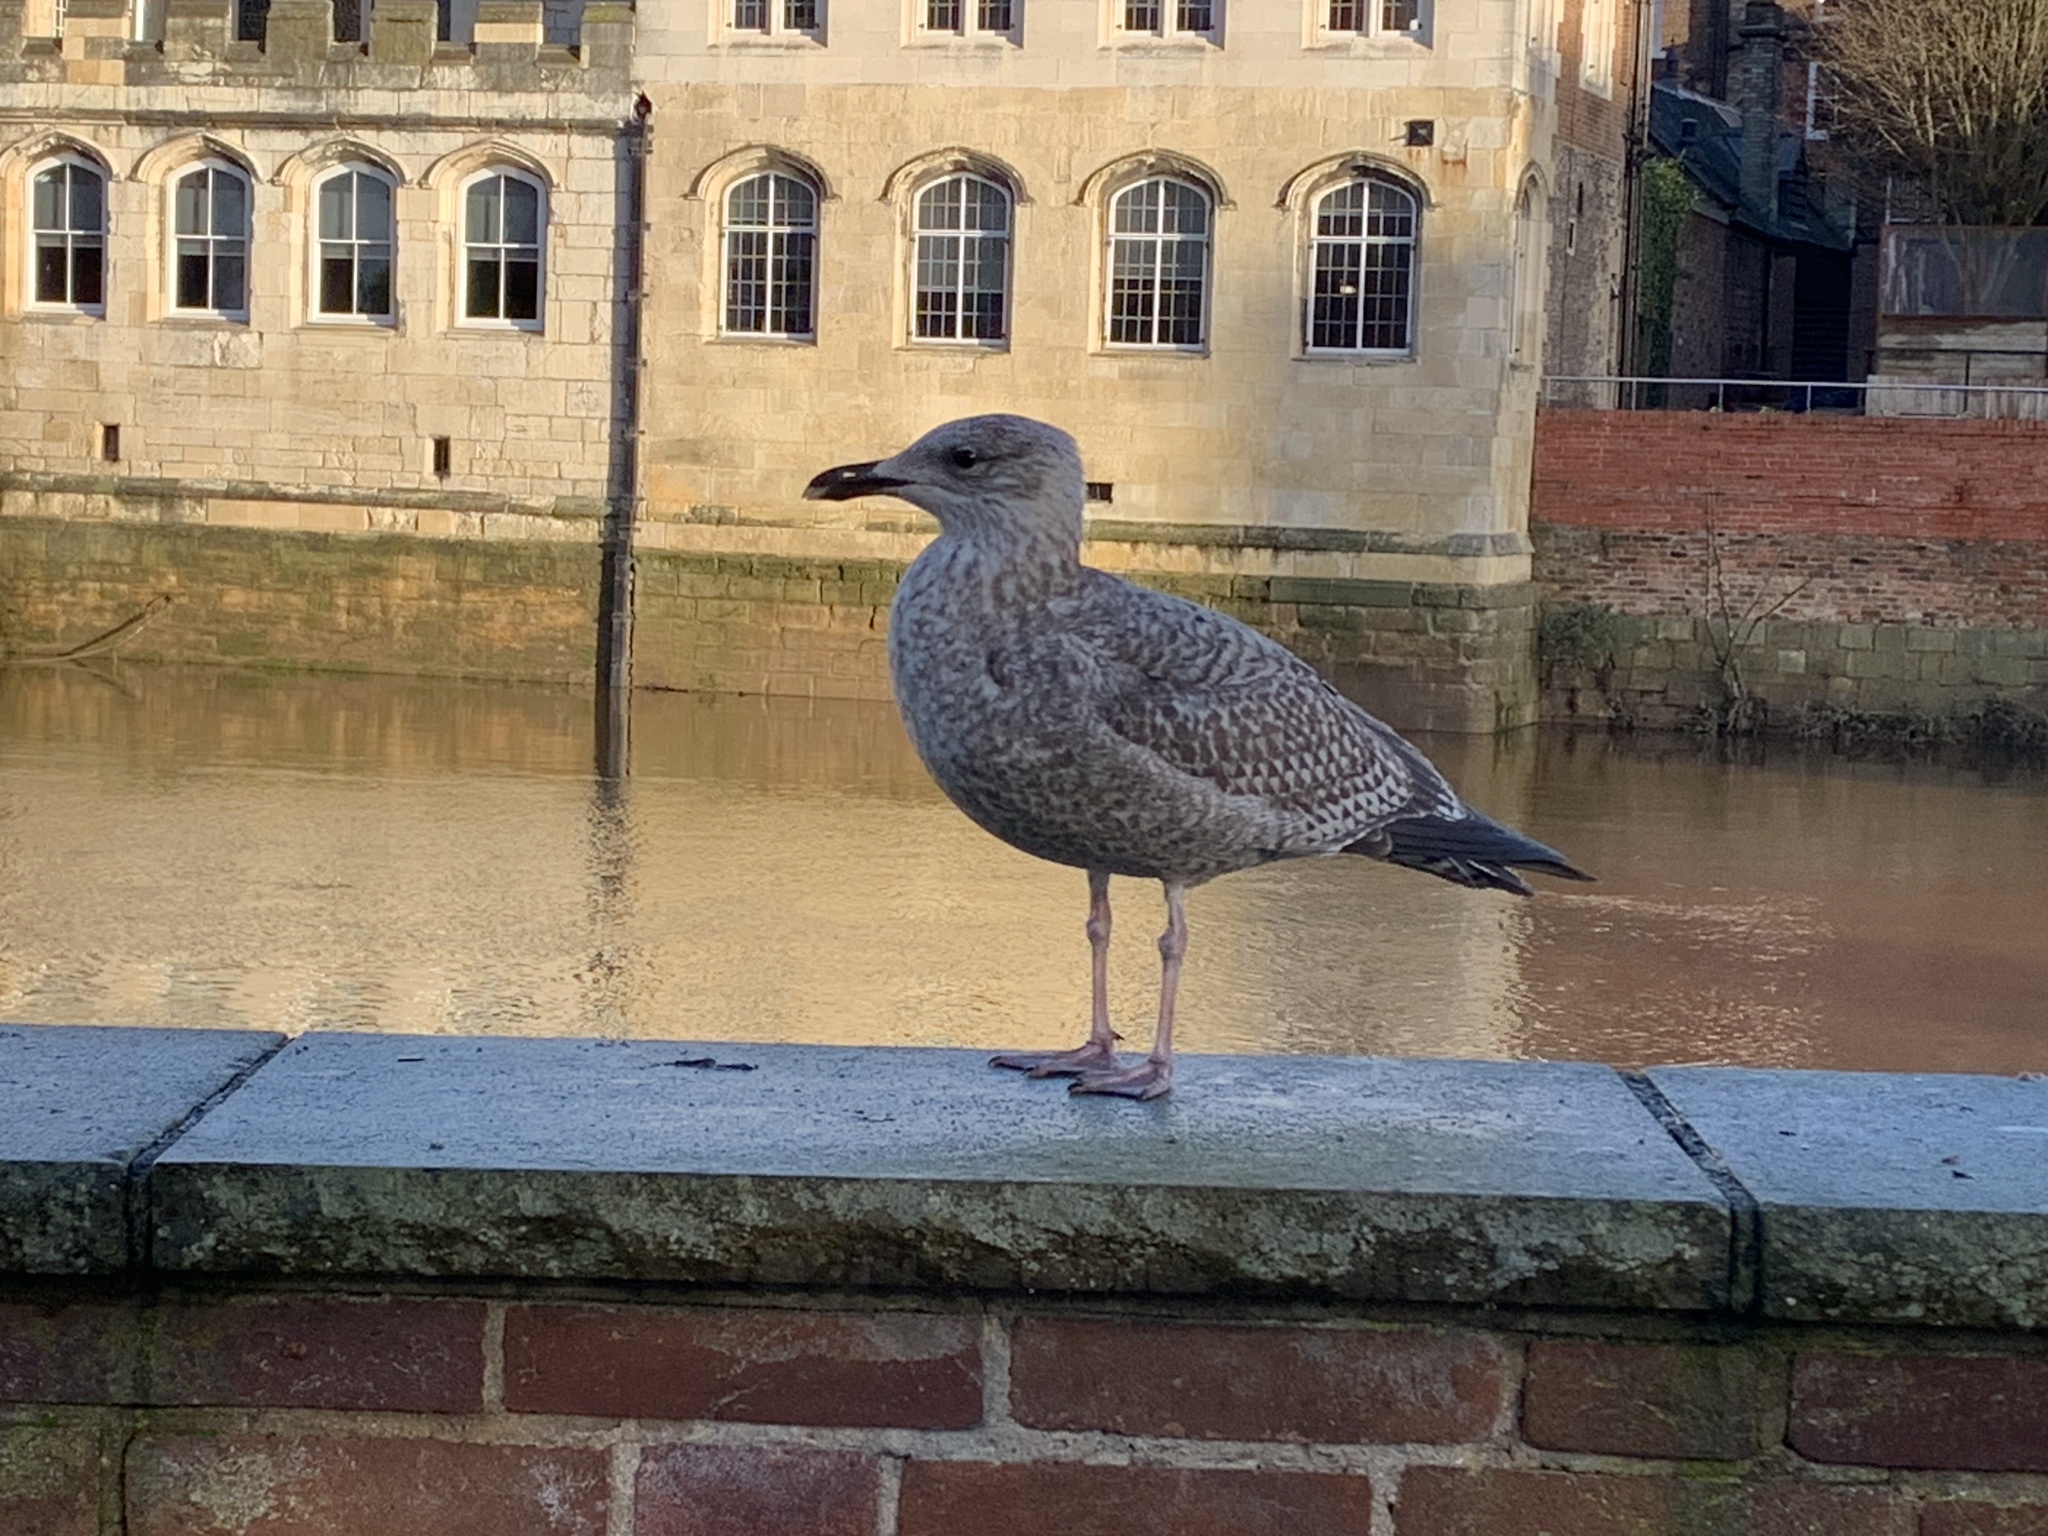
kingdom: Animalia
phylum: Chordata
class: Aves
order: Charadriiformes
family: Laridae
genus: Larus
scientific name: Larus argentatus
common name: Herring gull
